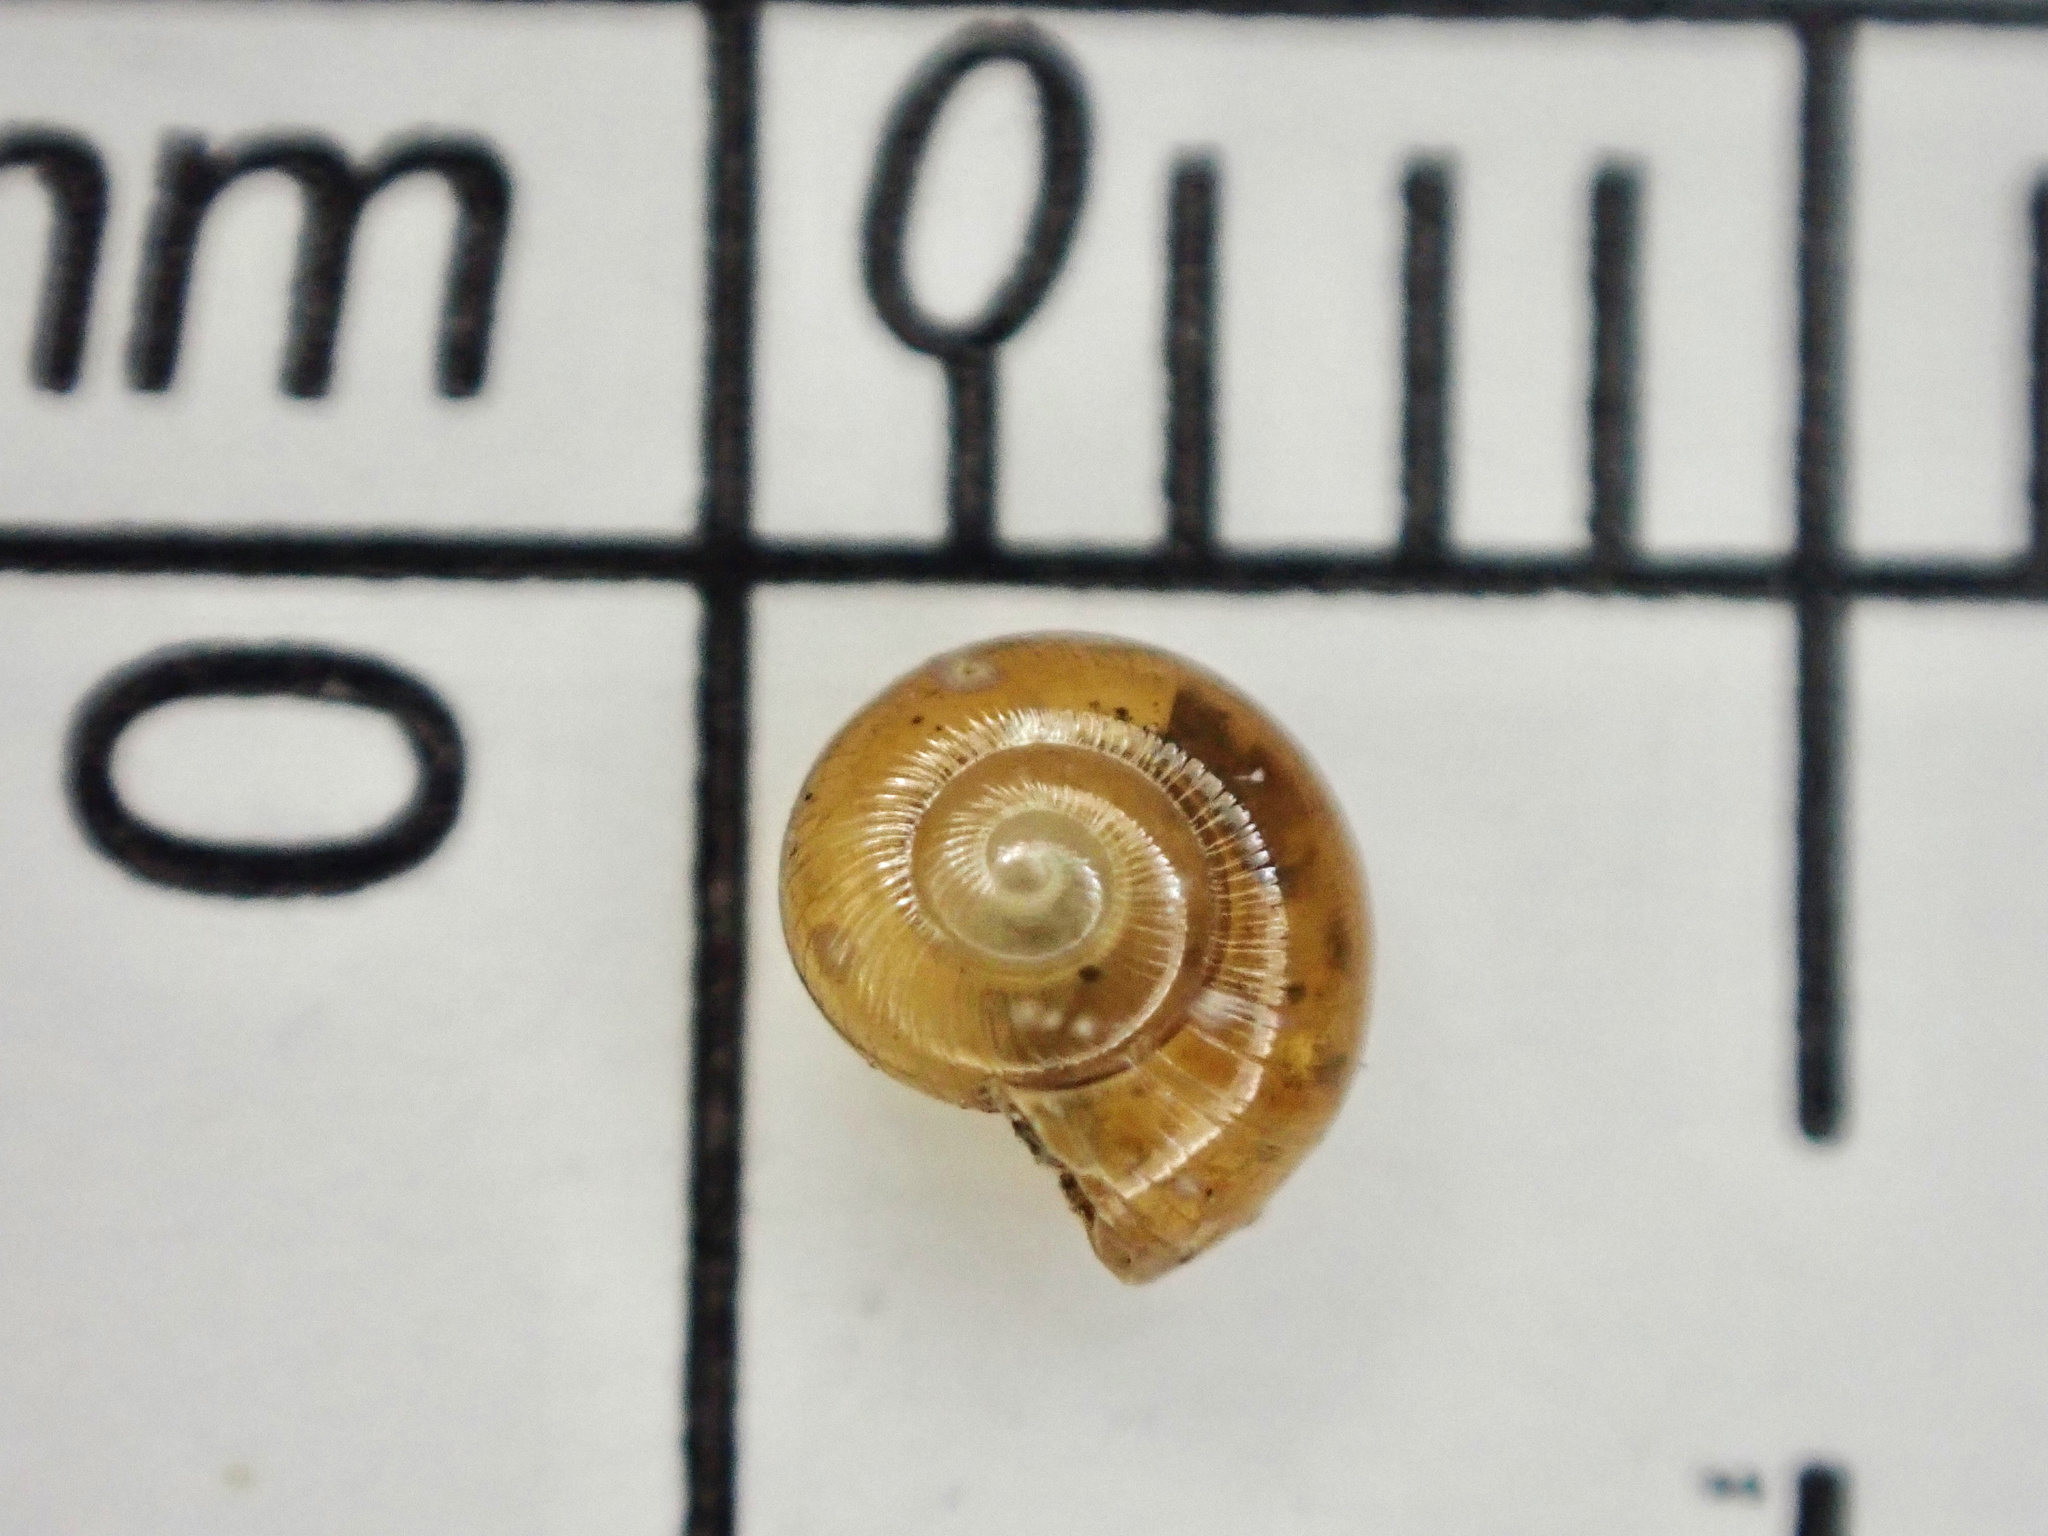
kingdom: Animalia
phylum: Mollusca
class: Gastropoda
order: Stylommatophora
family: Gastrodontidae
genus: Perpolita
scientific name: Perpolita electrina
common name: Amber glass
